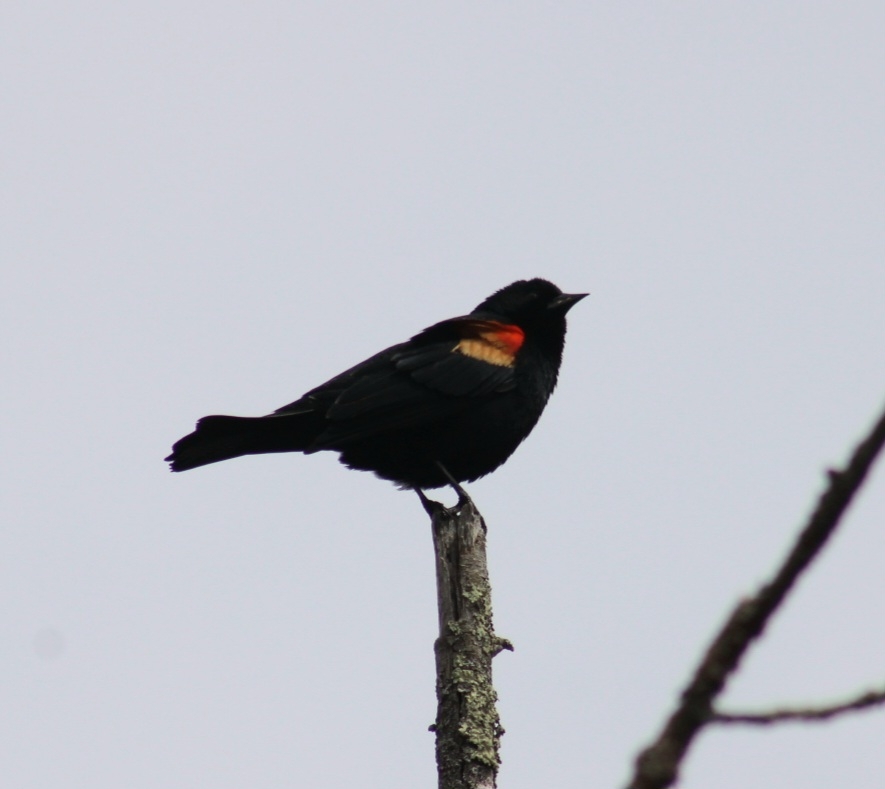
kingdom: Animalia
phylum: Chordata
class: Aves
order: Passeriformes
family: Icteridae
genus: Agelaius
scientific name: Agelaius phoeniceus
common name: Red-winged blackbird
